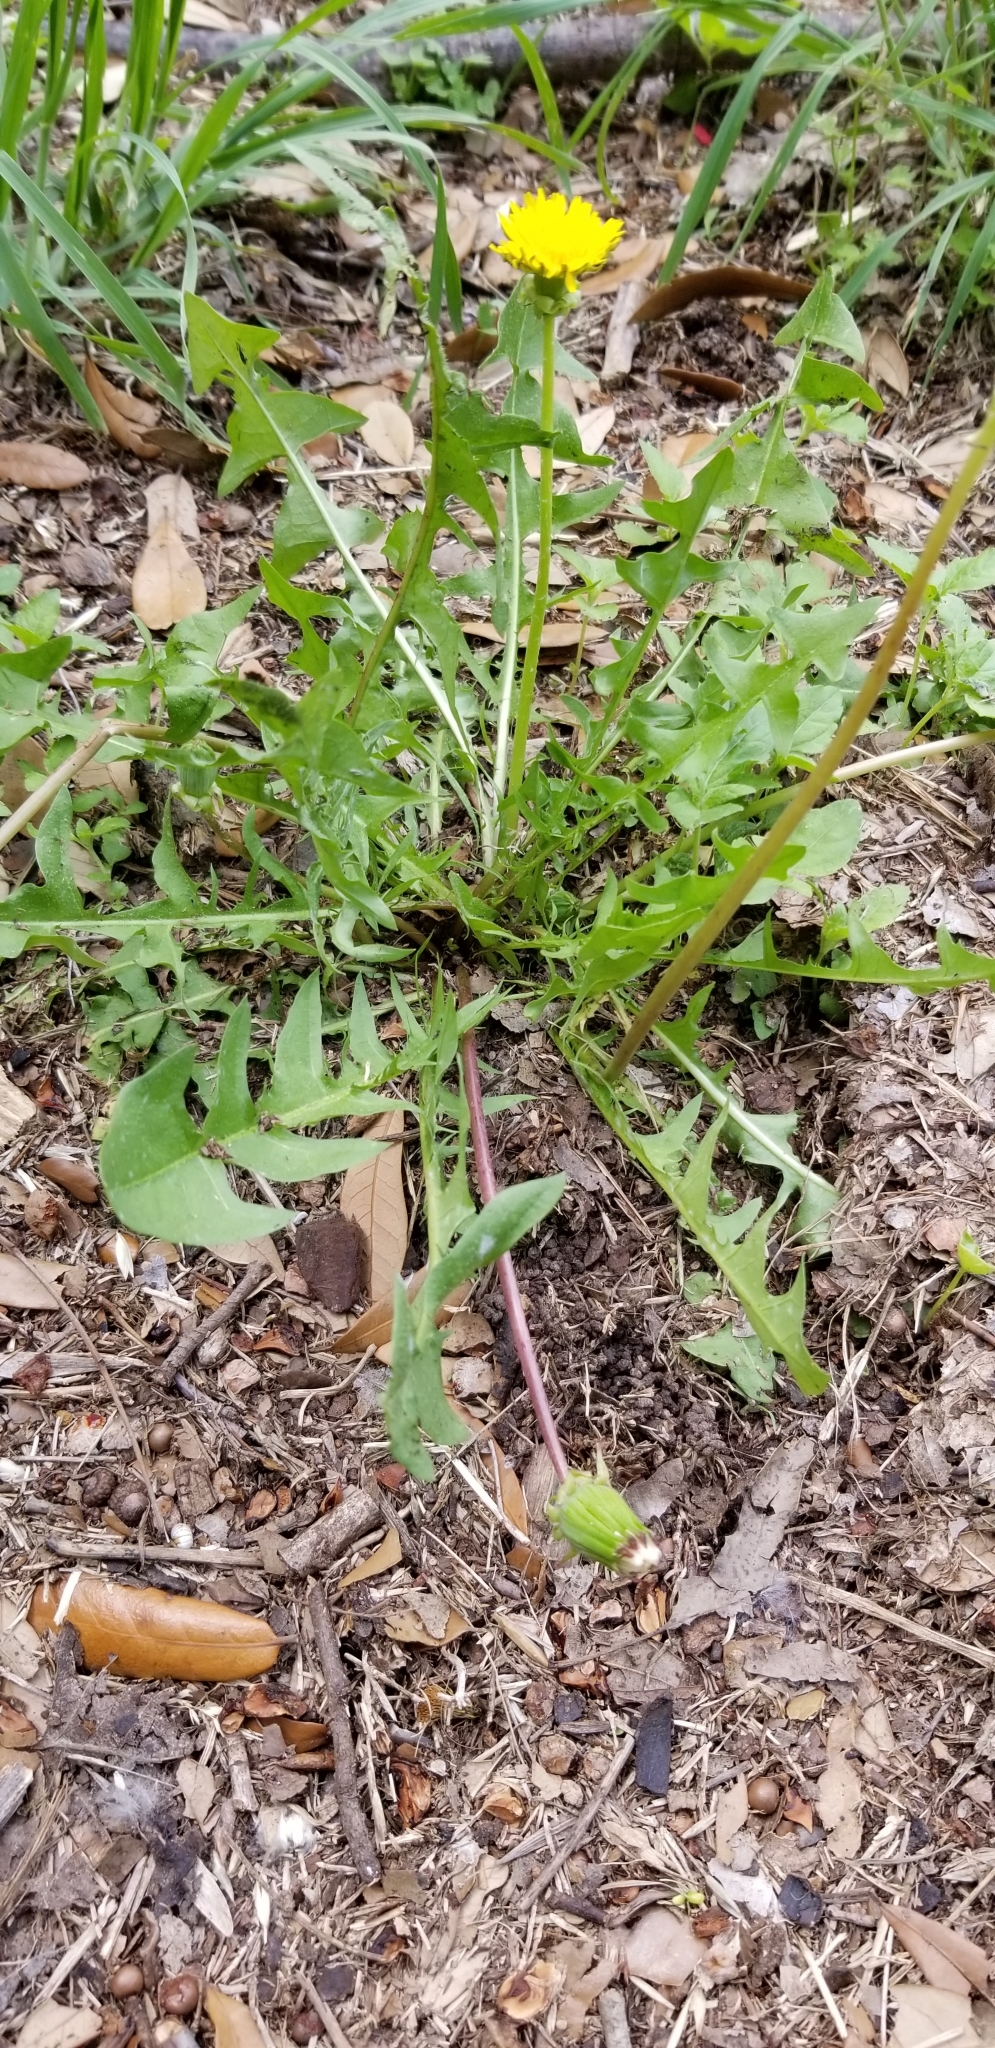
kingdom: Plantae
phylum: Tracheophyta
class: Magnoliopsida
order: Asterales
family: Asteraceae
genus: Taraxacum
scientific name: Taraxacum officinale
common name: Common dandelion
